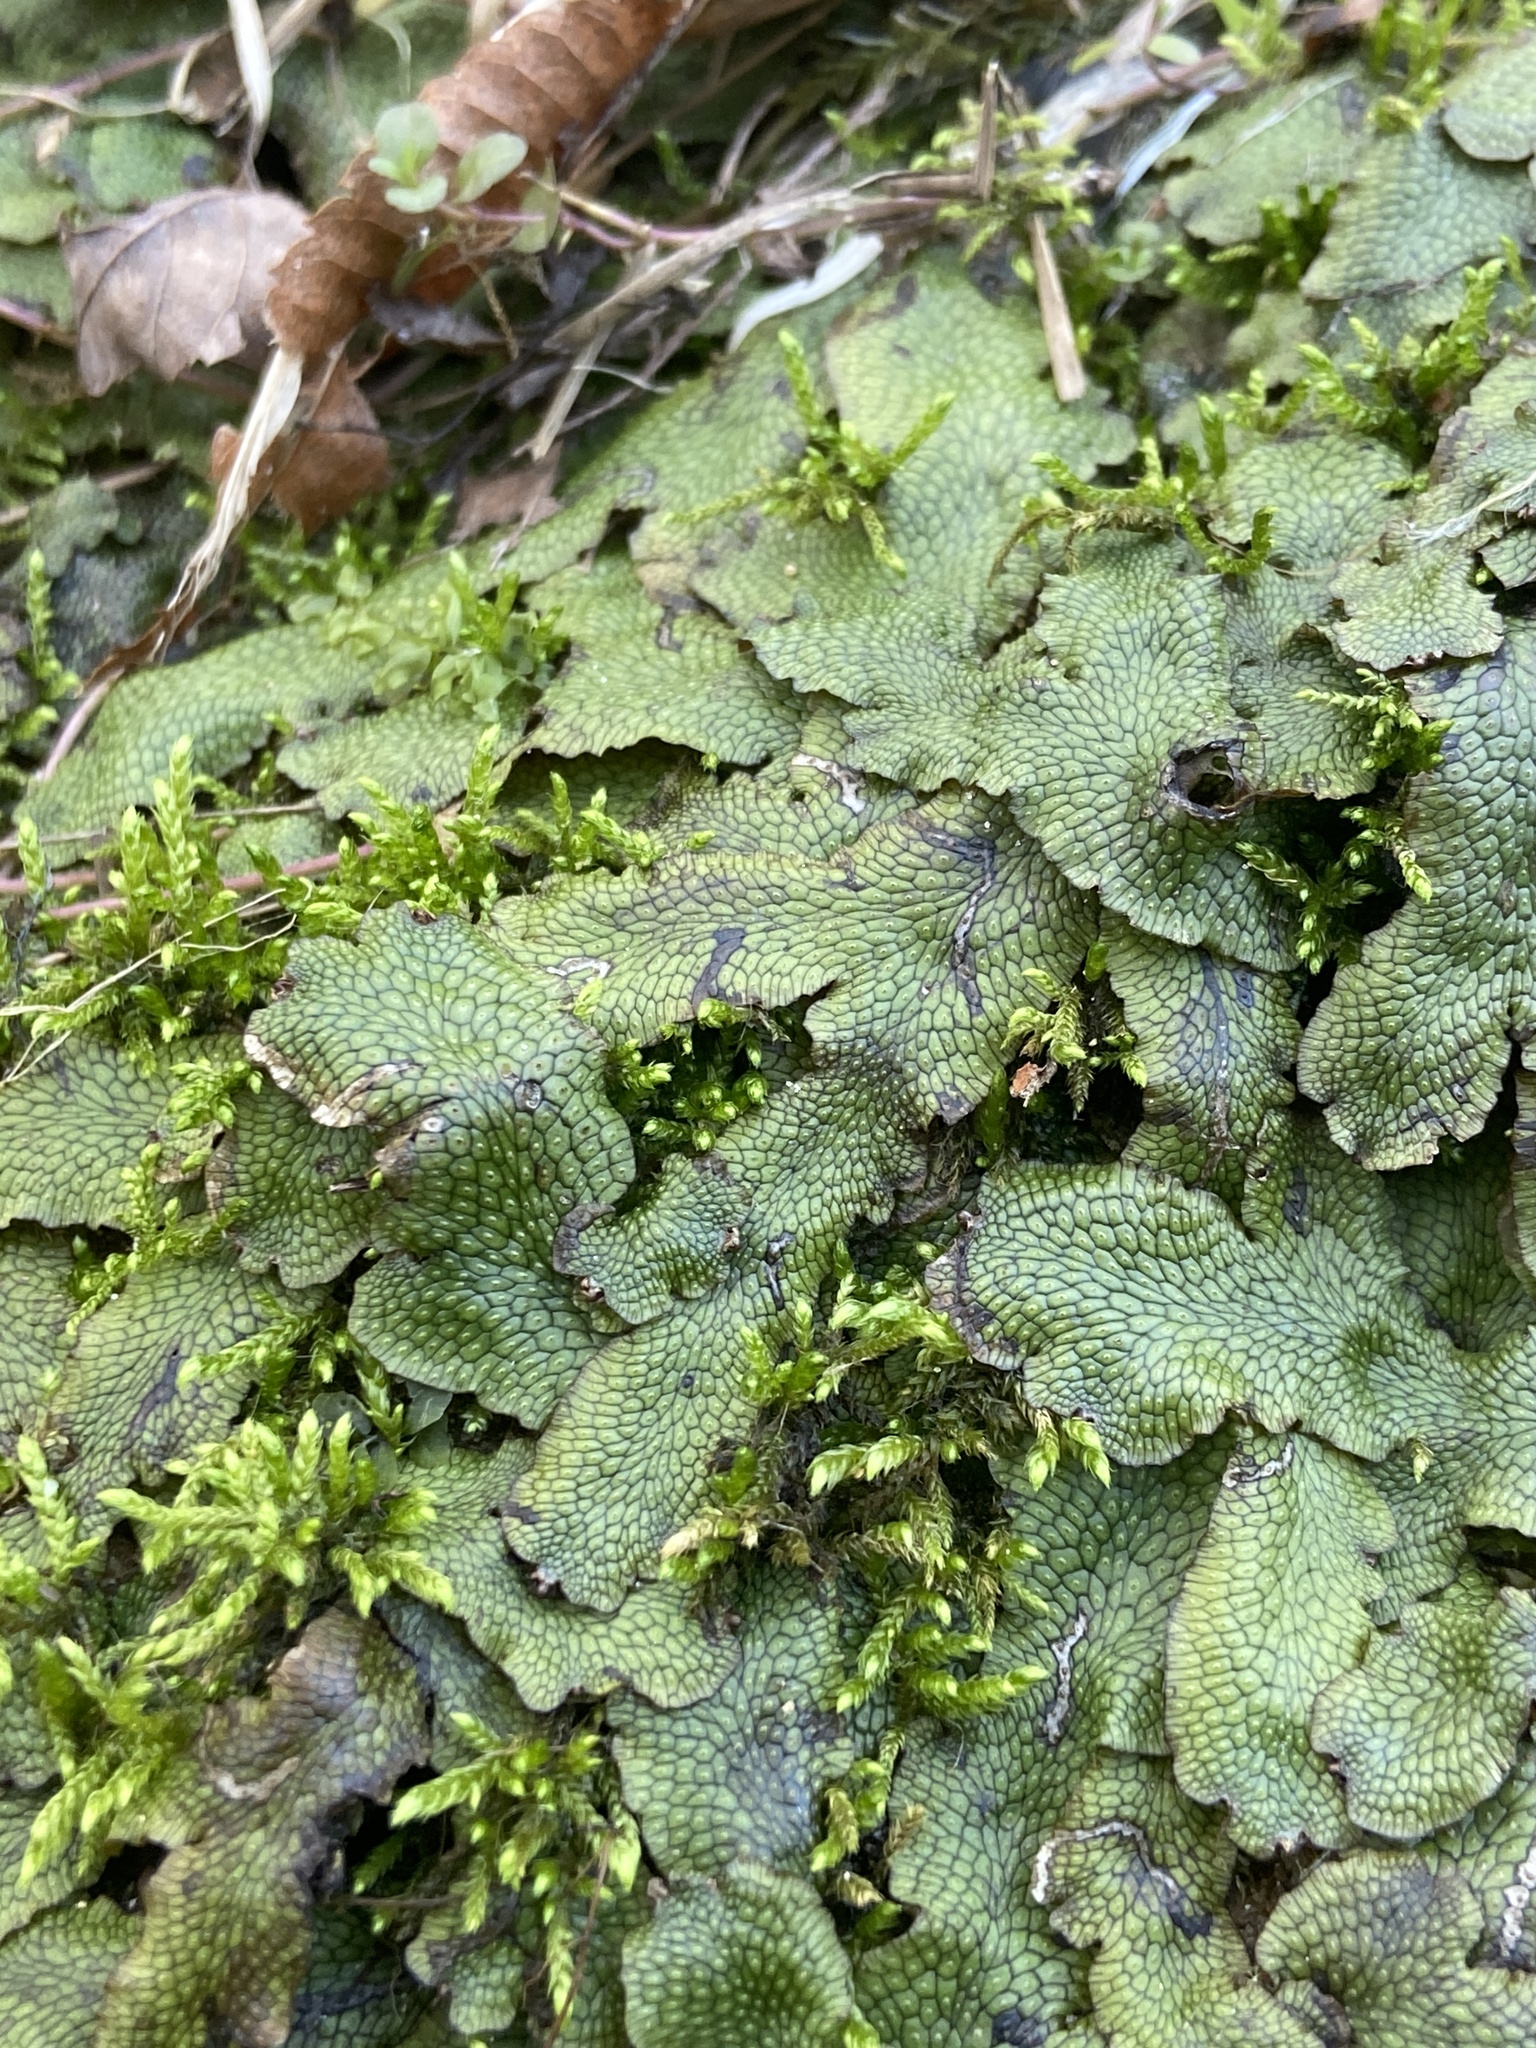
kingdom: Plantae
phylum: Marchantiophyta
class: Marchantiopsida
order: Marchantiales
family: Conocephalaceae
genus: Conocephalum
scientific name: Conocephalum salebrosum
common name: Cat-tongue liverwort
